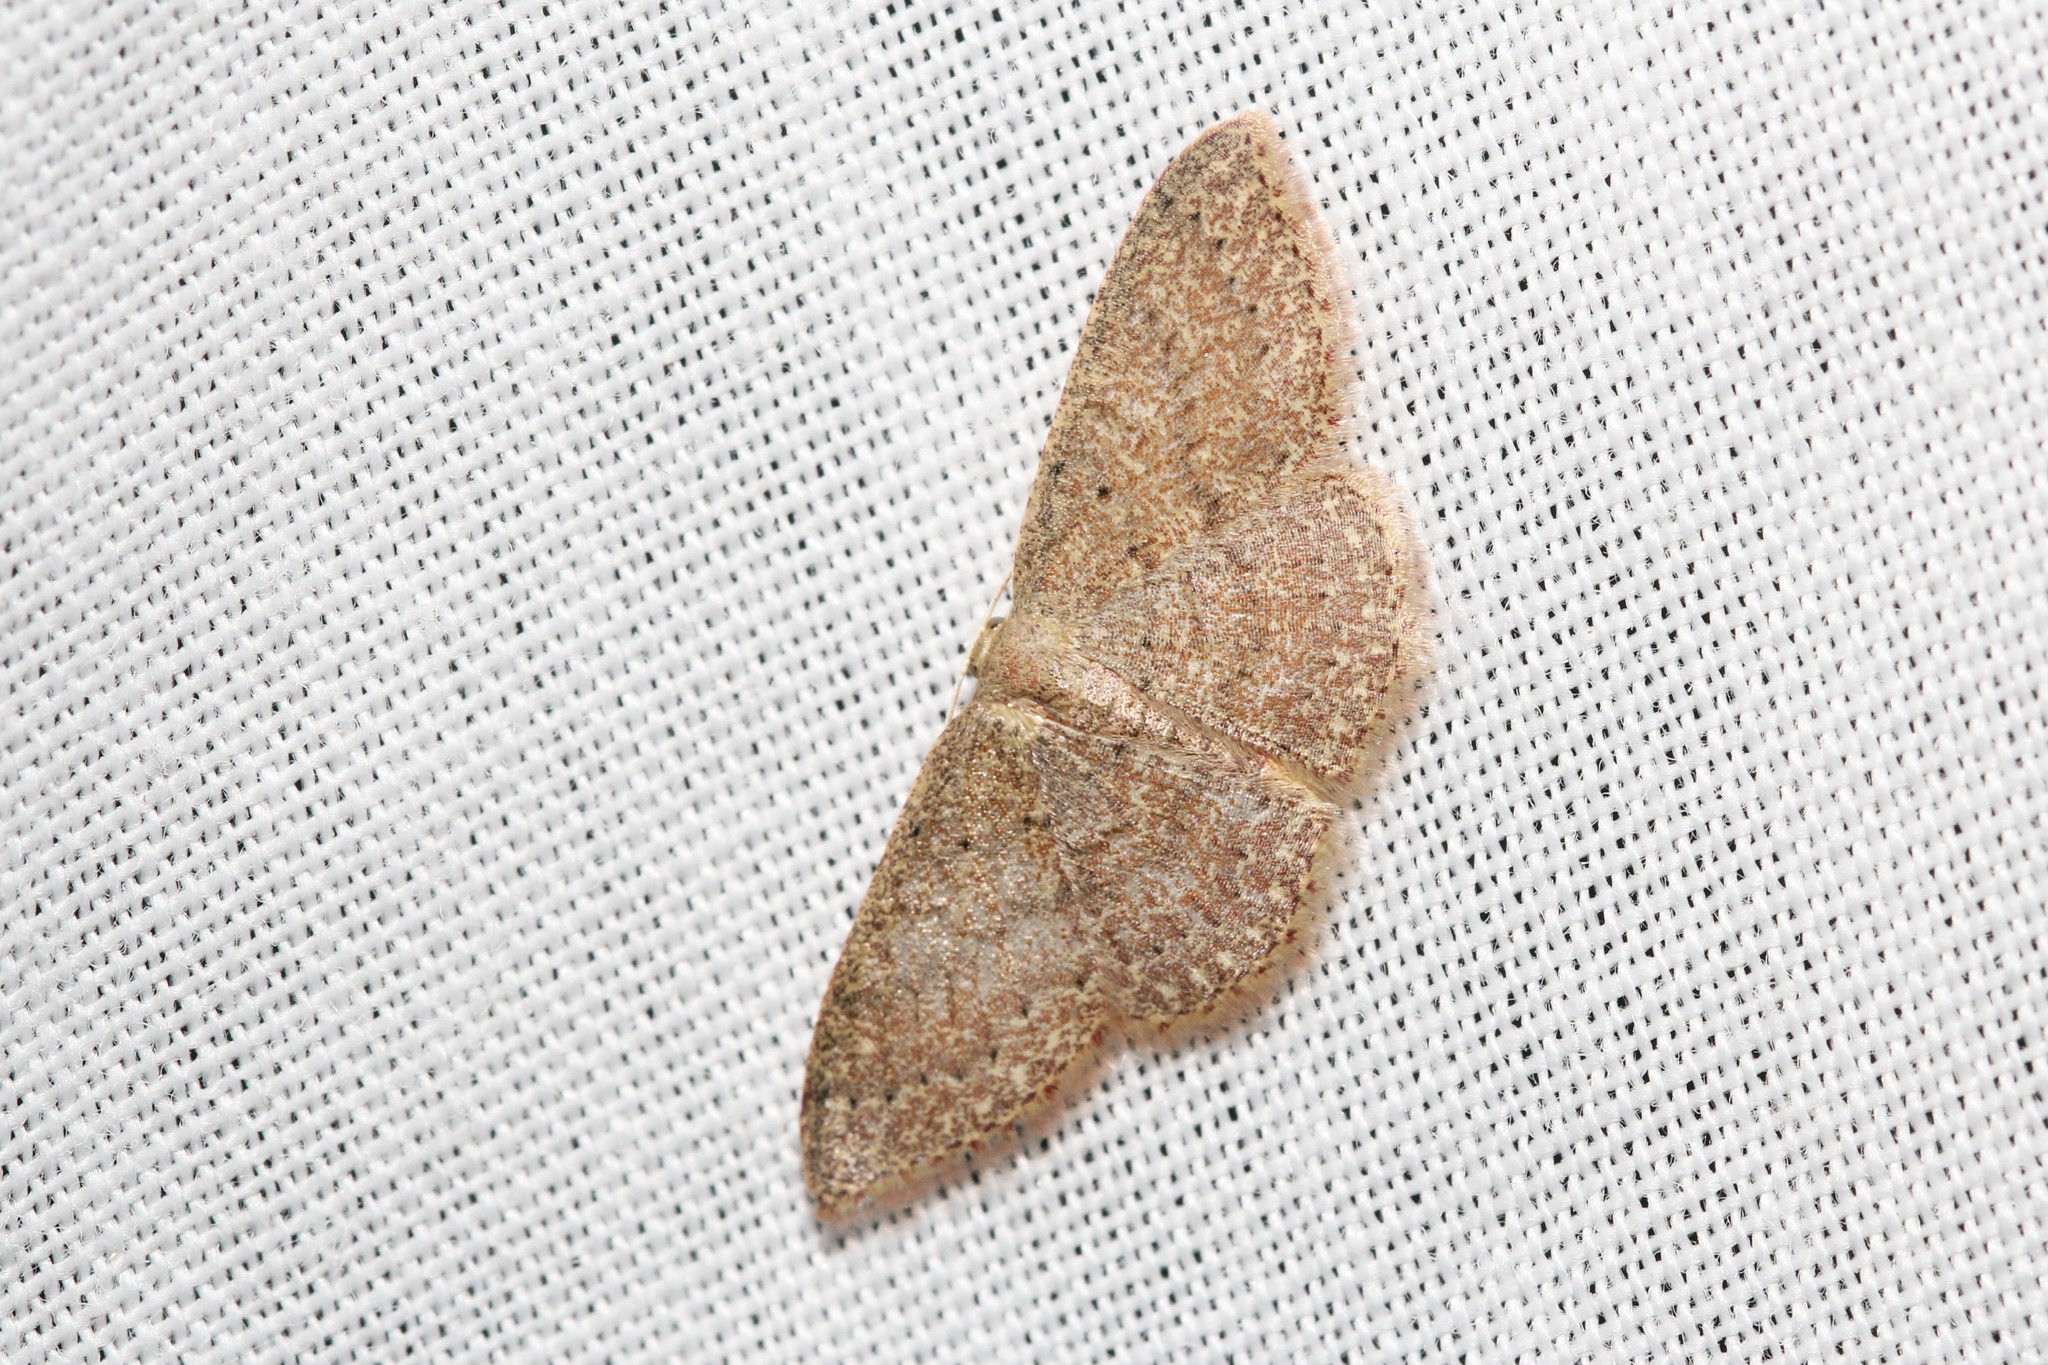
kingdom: Animalia
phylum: Arthropoda
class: Insecta
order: Lepidoptera
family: Geometridae
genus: Pleuroprucha
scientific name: Pleuroprucha insulsaria
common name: Common tan wave
